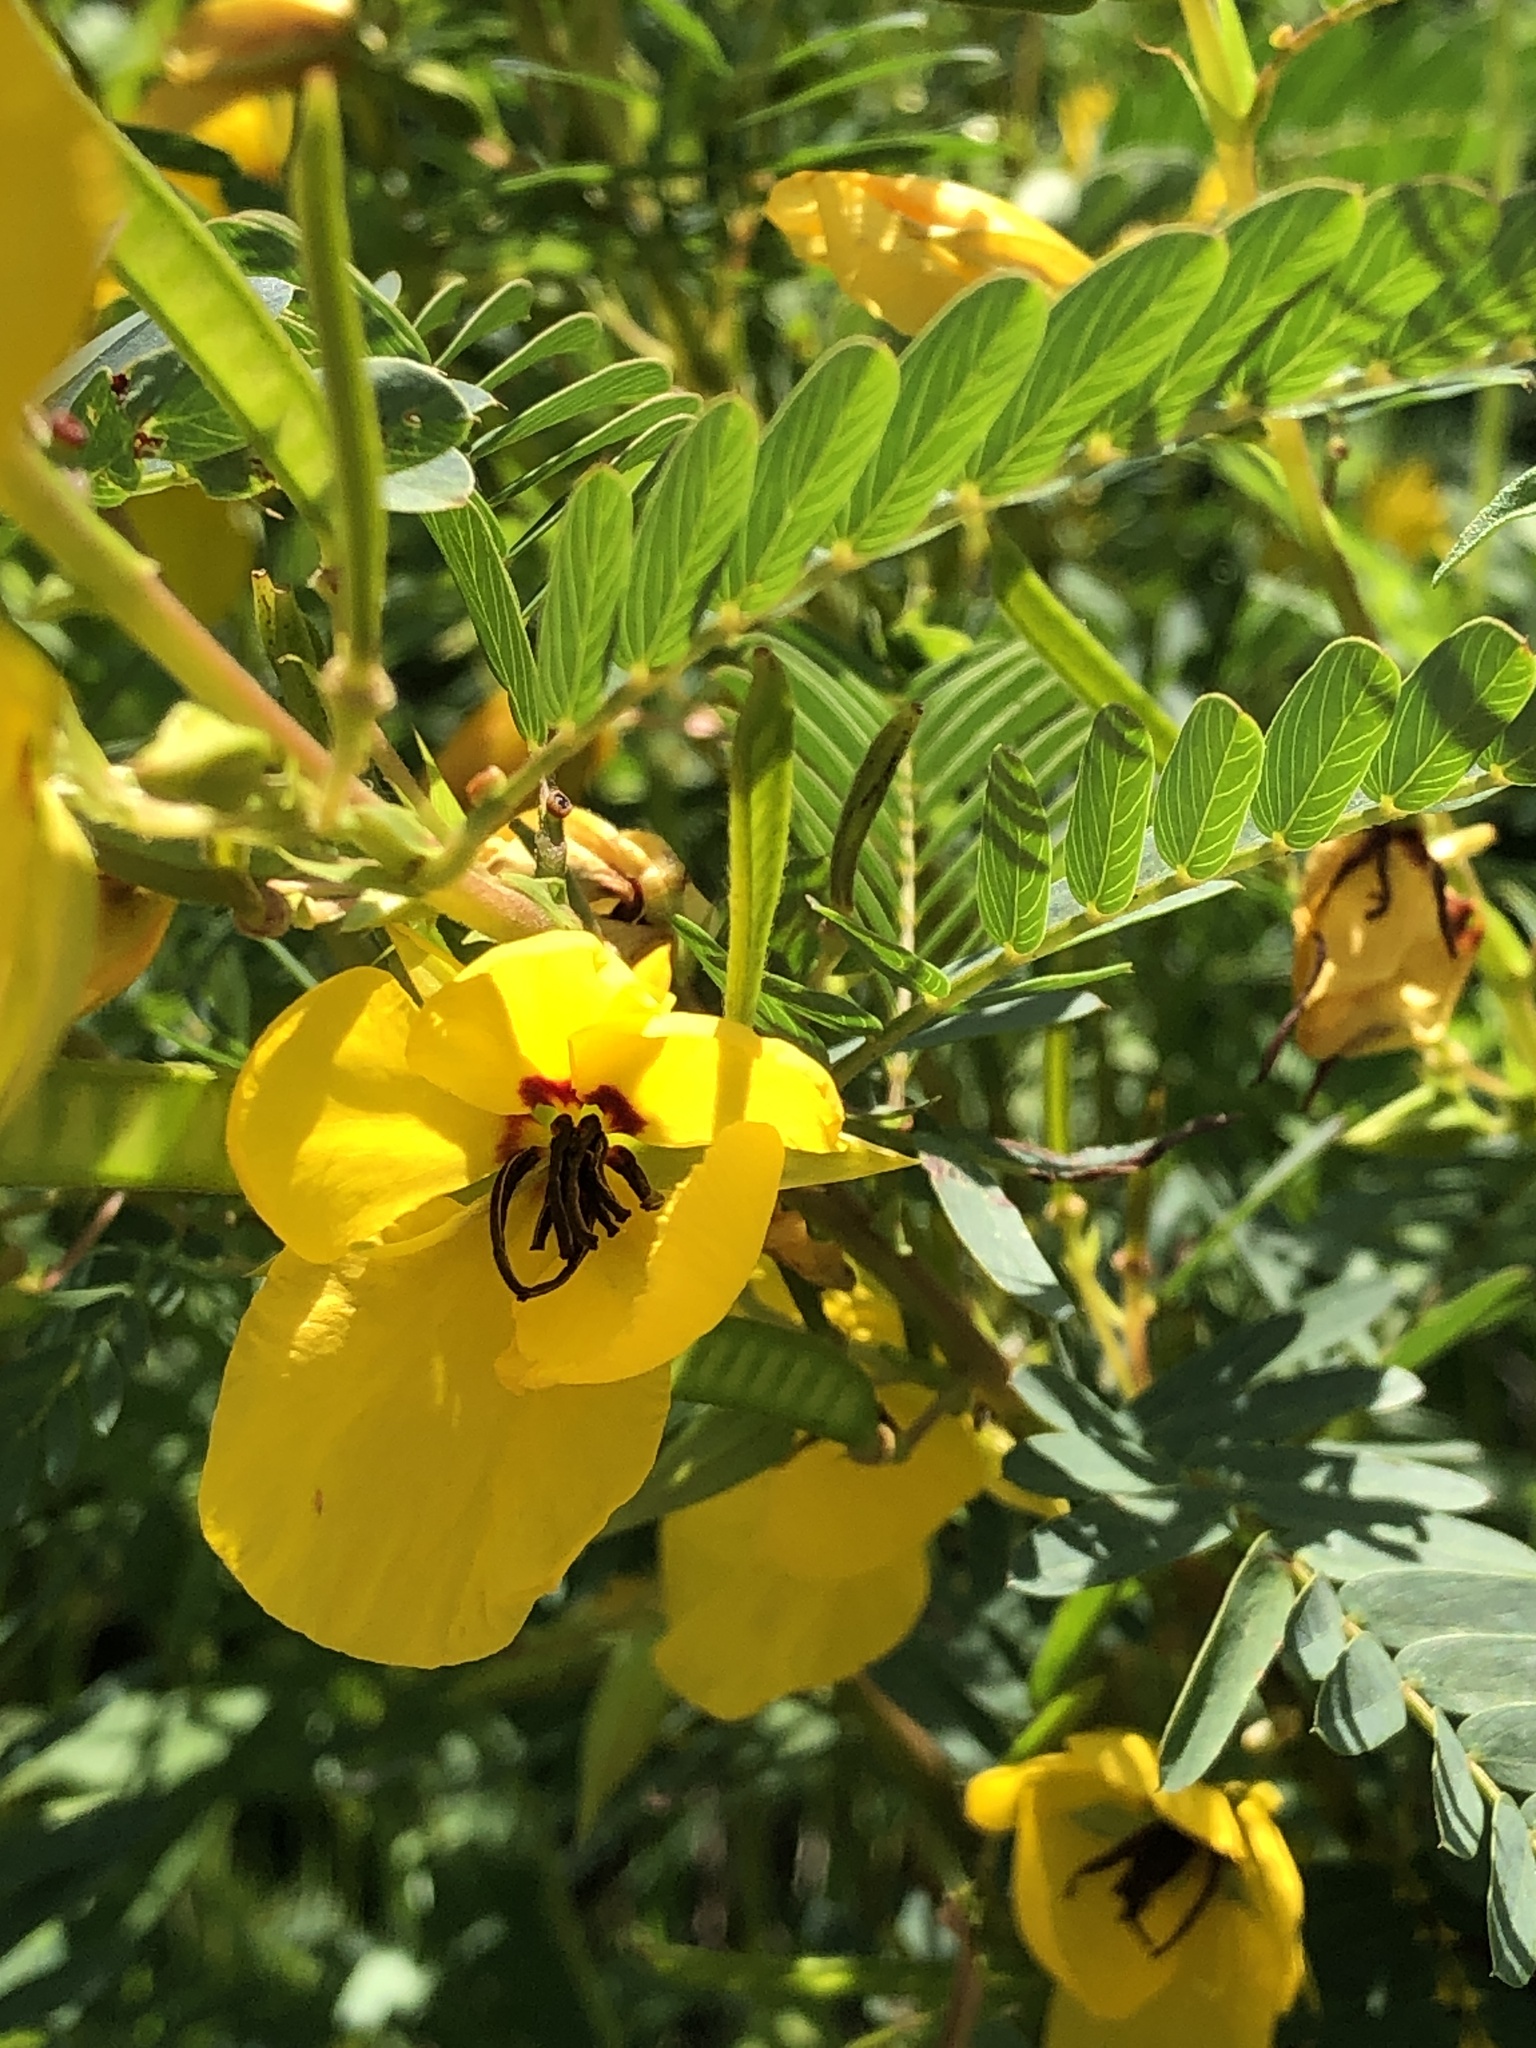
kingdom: Plantae
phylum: Tracheophyta
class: Magnoliopsida
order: Fabales
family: Fabaceae
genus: Chamaecrista
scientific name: Chamaecrista fasciculata
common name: Golden cassia
